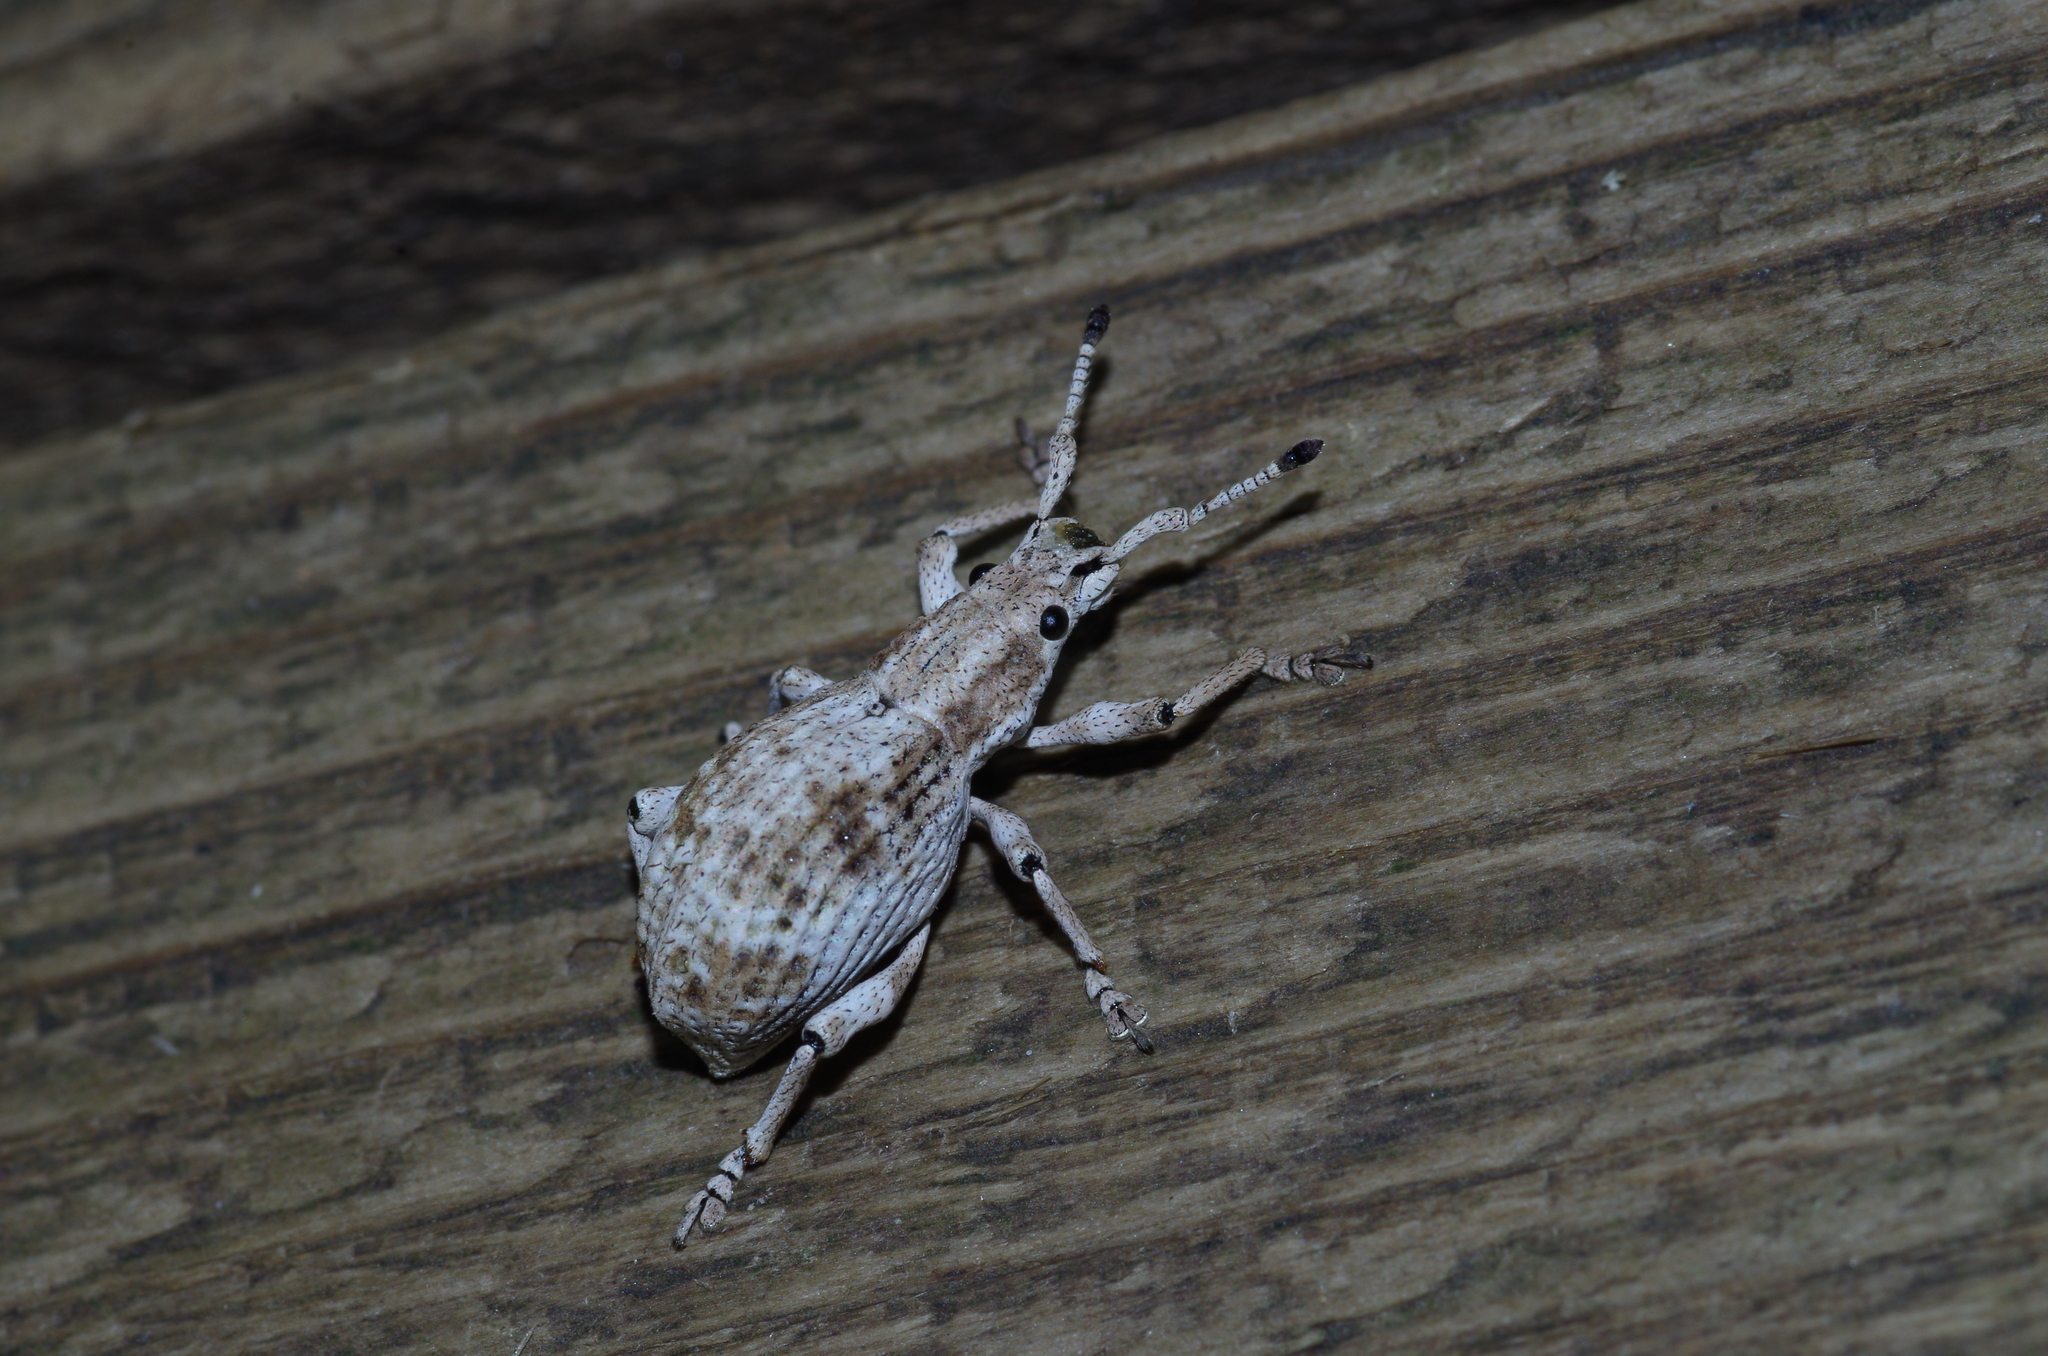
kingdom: Animalia
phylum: Arthropoda
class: Insecta
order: Coleoptera
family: Curculionidae
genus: Episomus
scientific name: Episomus mori
